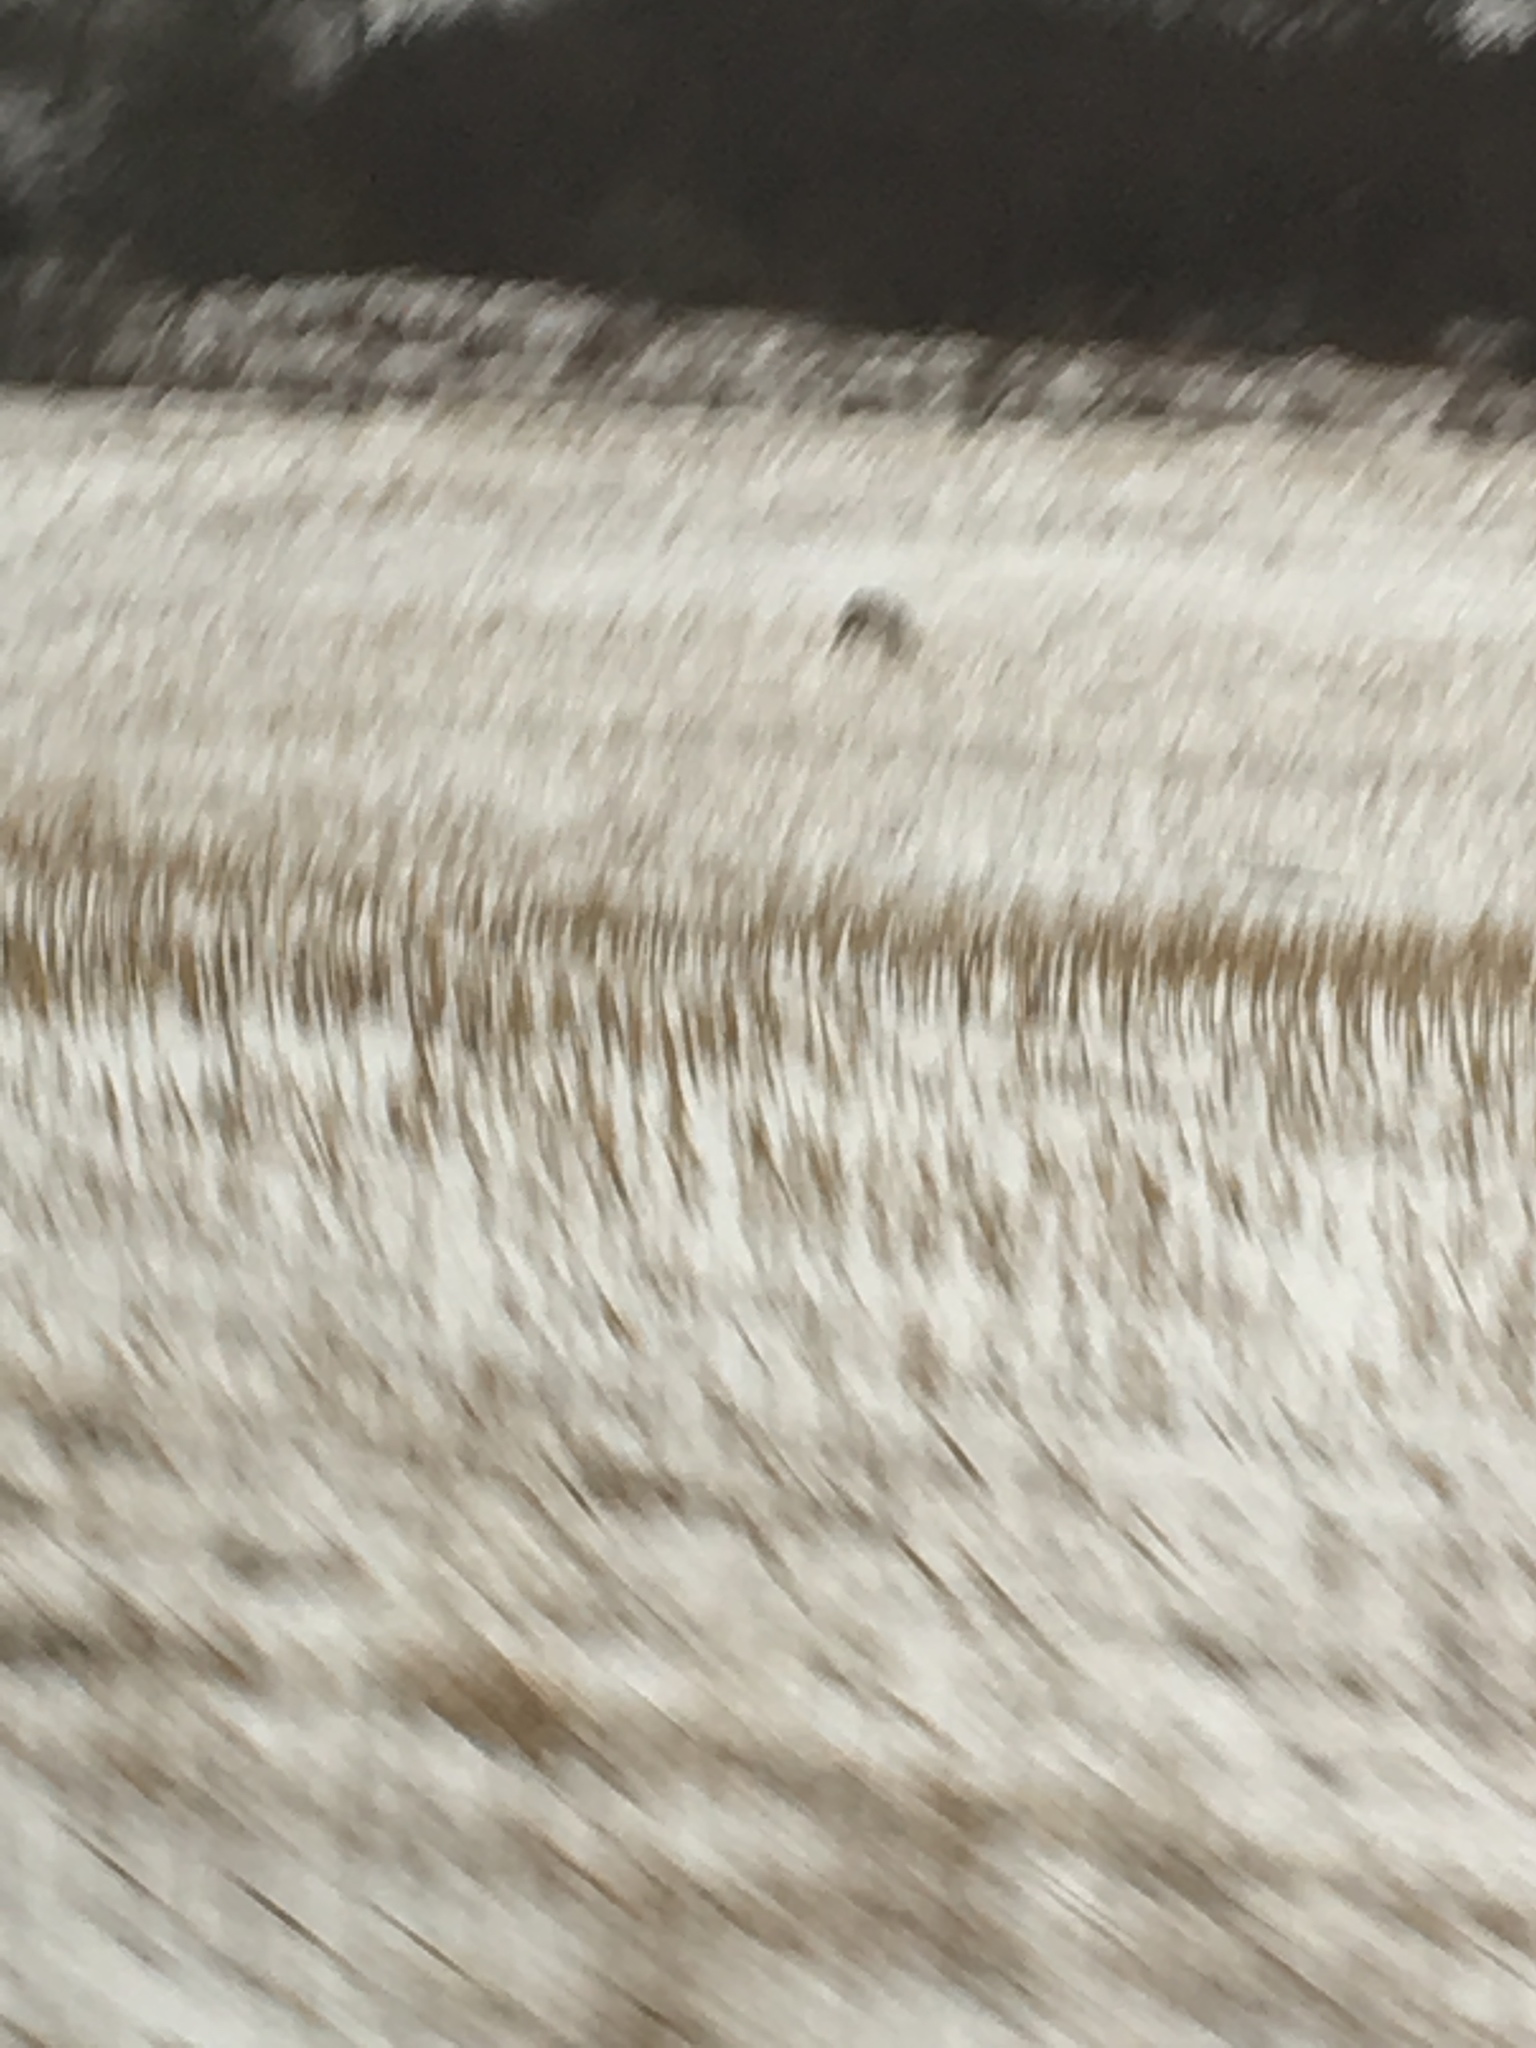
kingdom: Animalia
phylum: Chordata
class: Mammalia
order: Artiodactyla
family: Cervidae
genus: Odocoileus
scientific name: Odocoileus virginianus
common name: White-tailed deer
